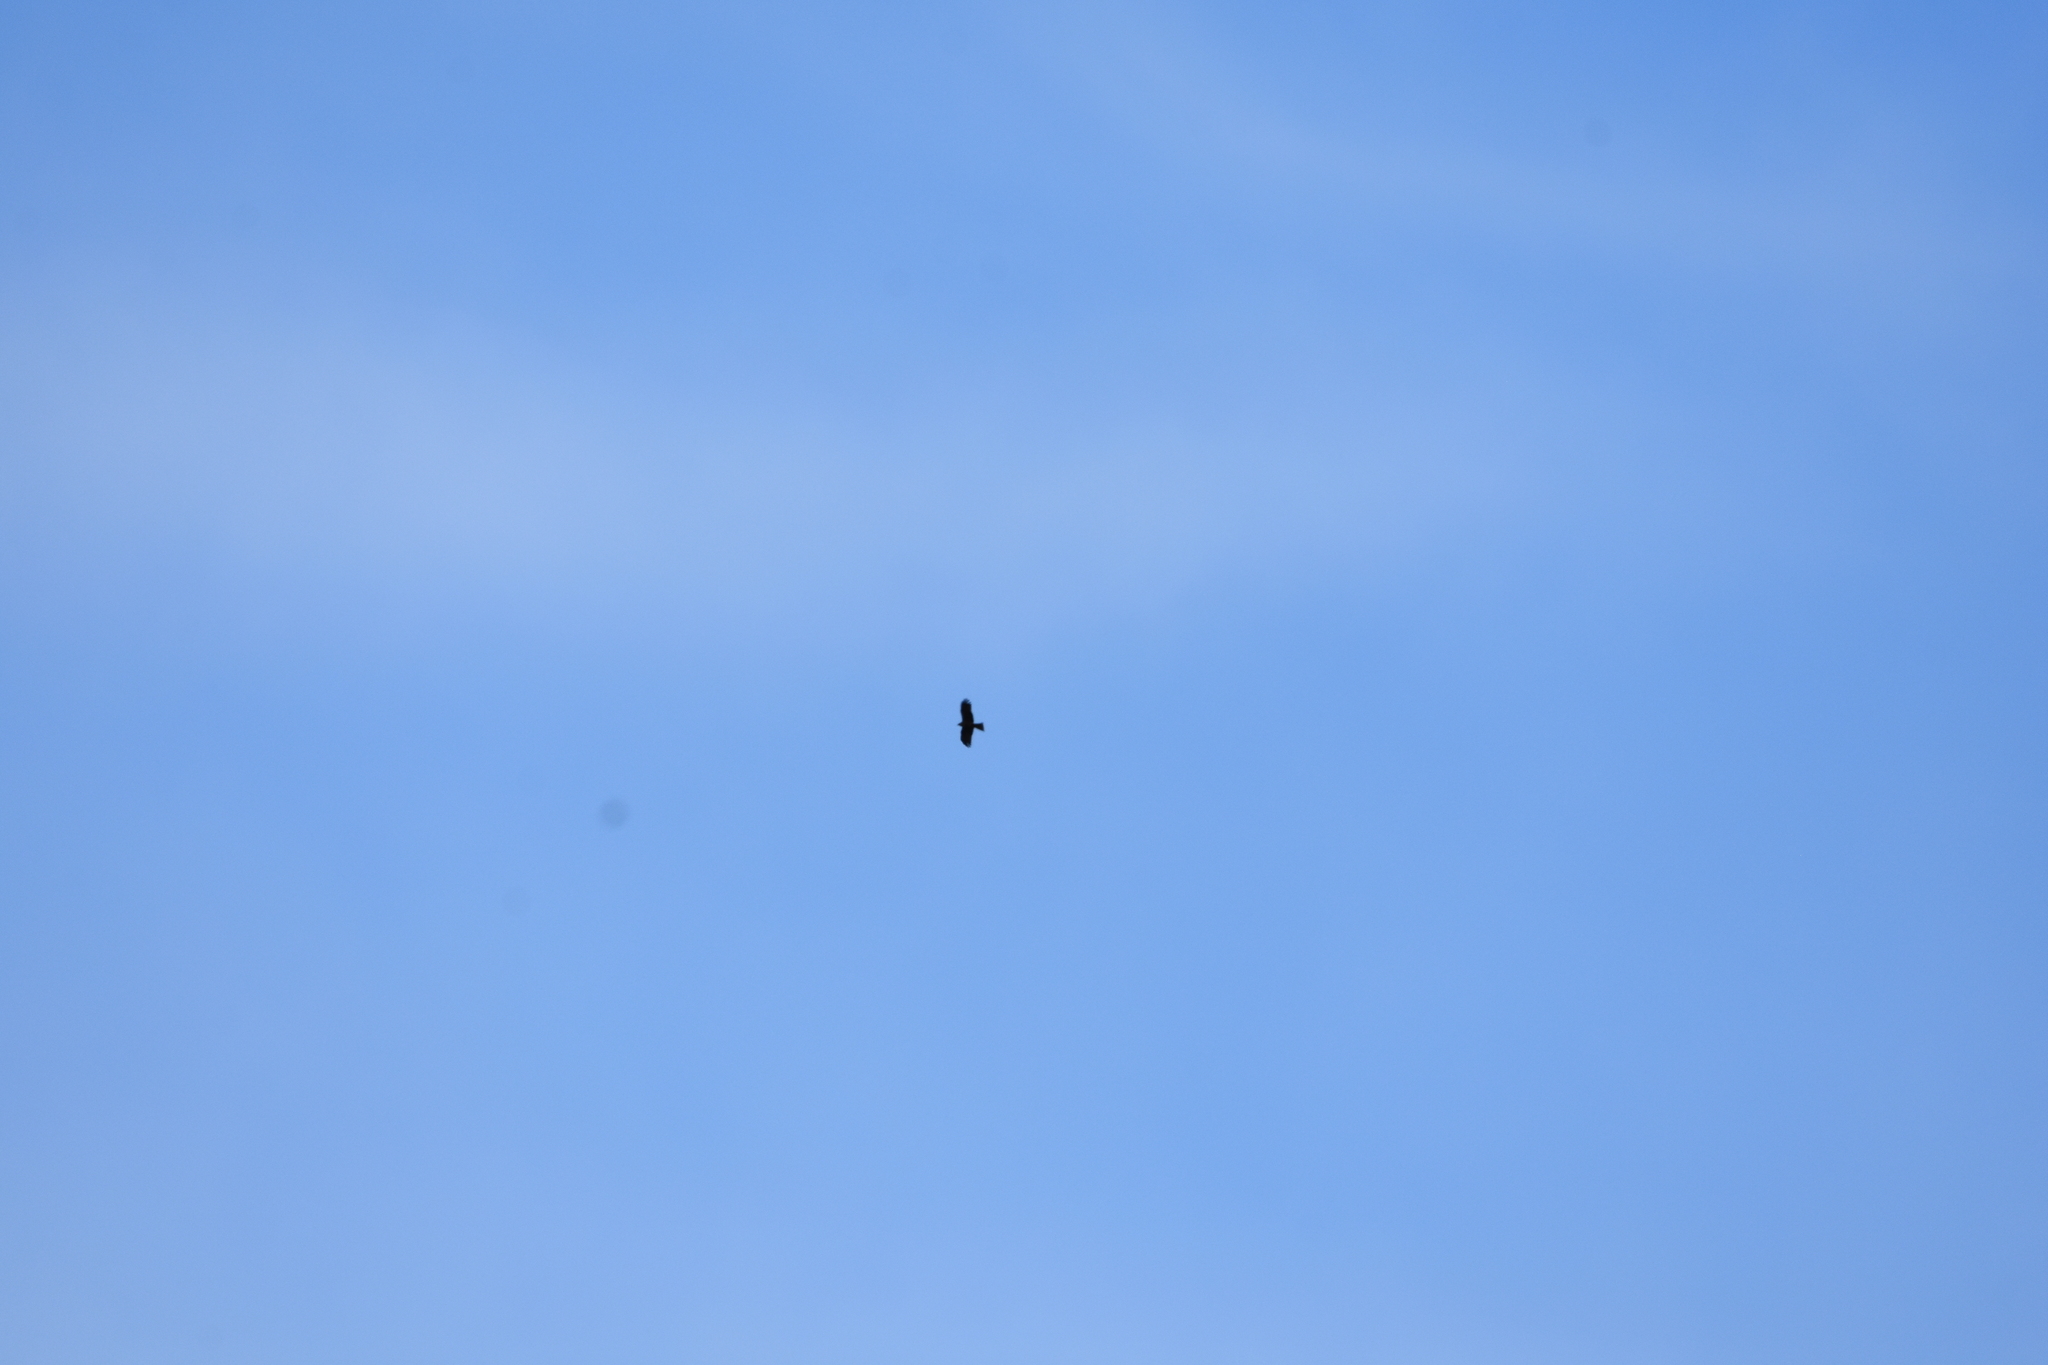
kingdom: Animalia
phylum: Chordata
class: Aves
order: Accipitriformes
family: Accipitridae
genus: Milvus
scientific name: Milvus migrans
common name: Black kite
